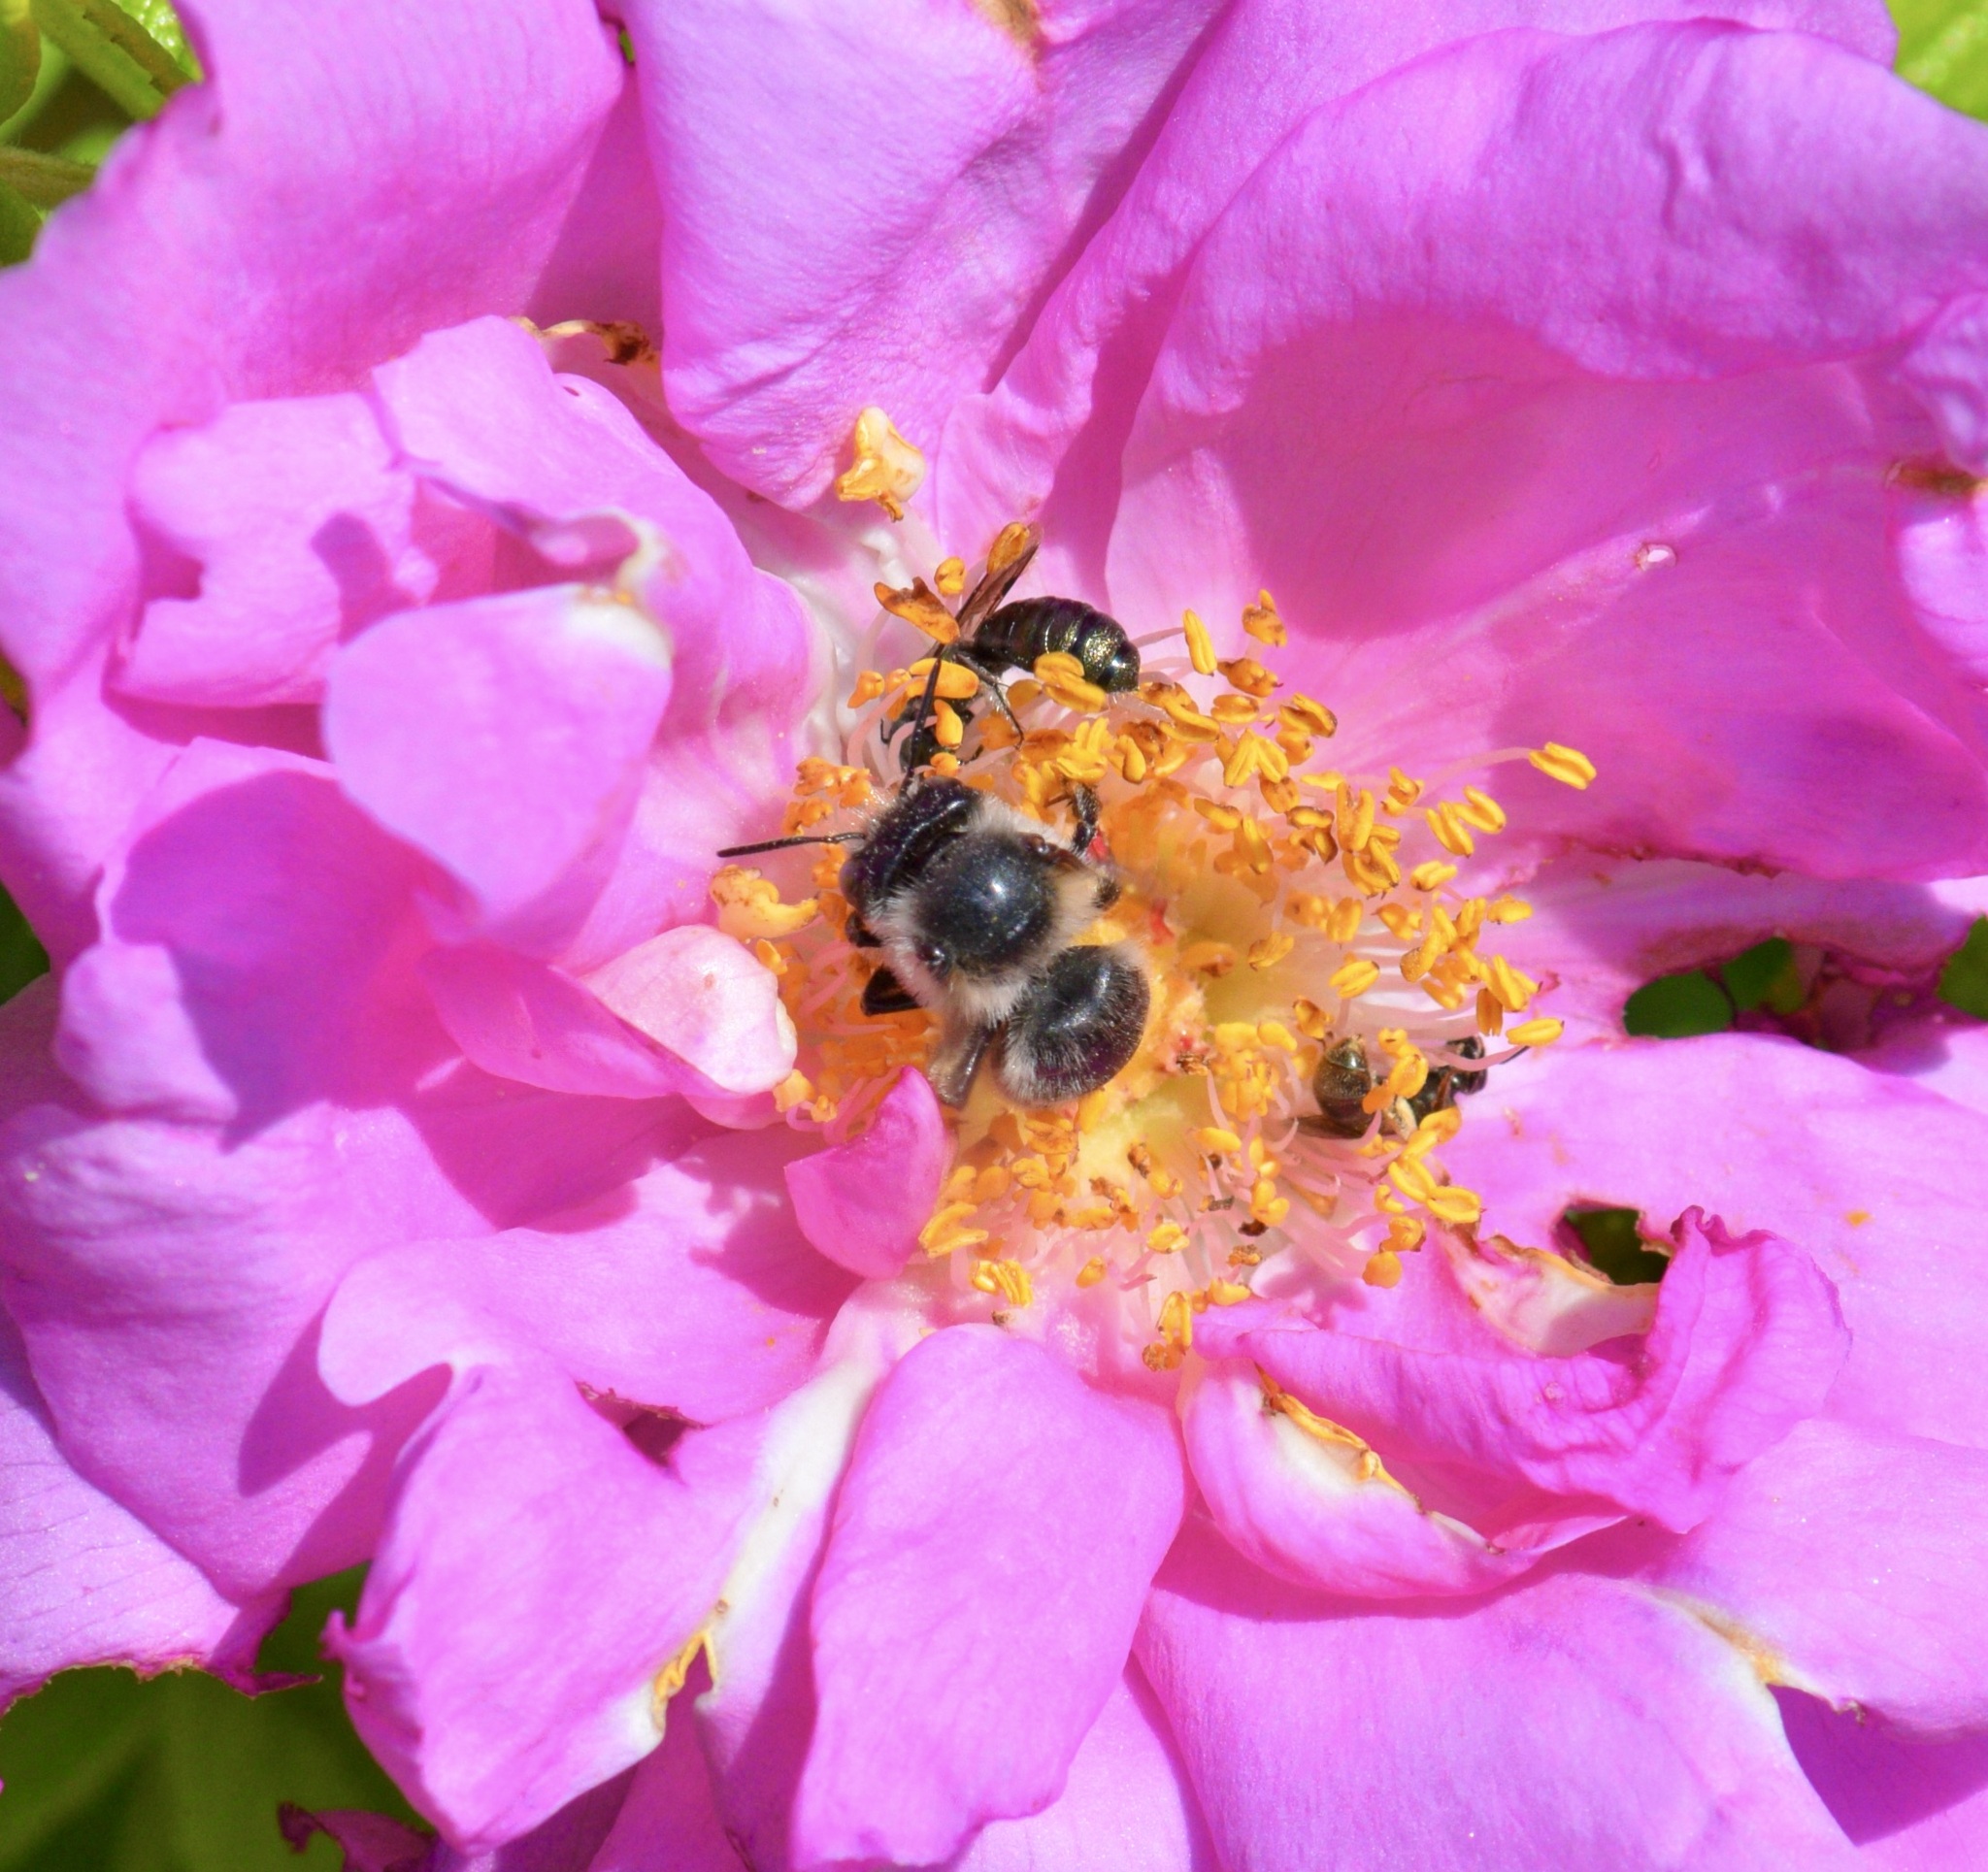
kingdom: Animalia
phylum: Arthropoda
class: Insecta
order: Hymenoptera
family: Apidae
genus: Anthophora
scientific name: Anthophora terminalis
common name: Orange-tipped wood-digger bee
